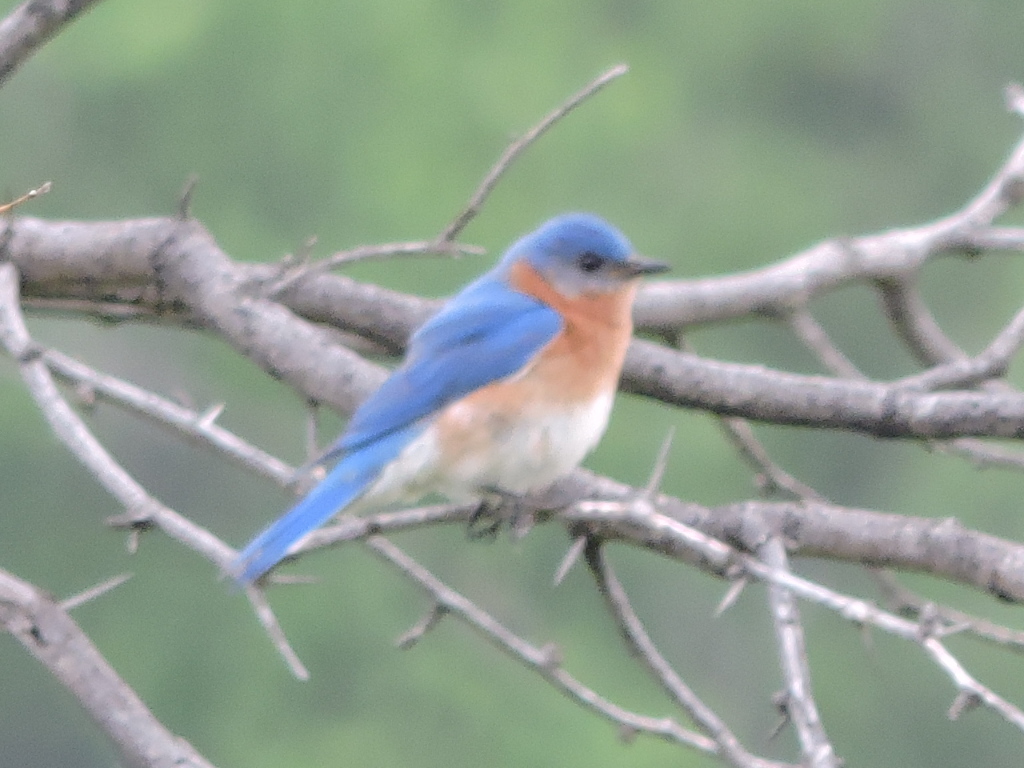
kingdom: Animalia
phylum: Chordata
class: Aves
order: Passeriformes
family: Turdidae
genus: Sialia
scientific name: Sialia sialis
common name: Eastern bluebird
